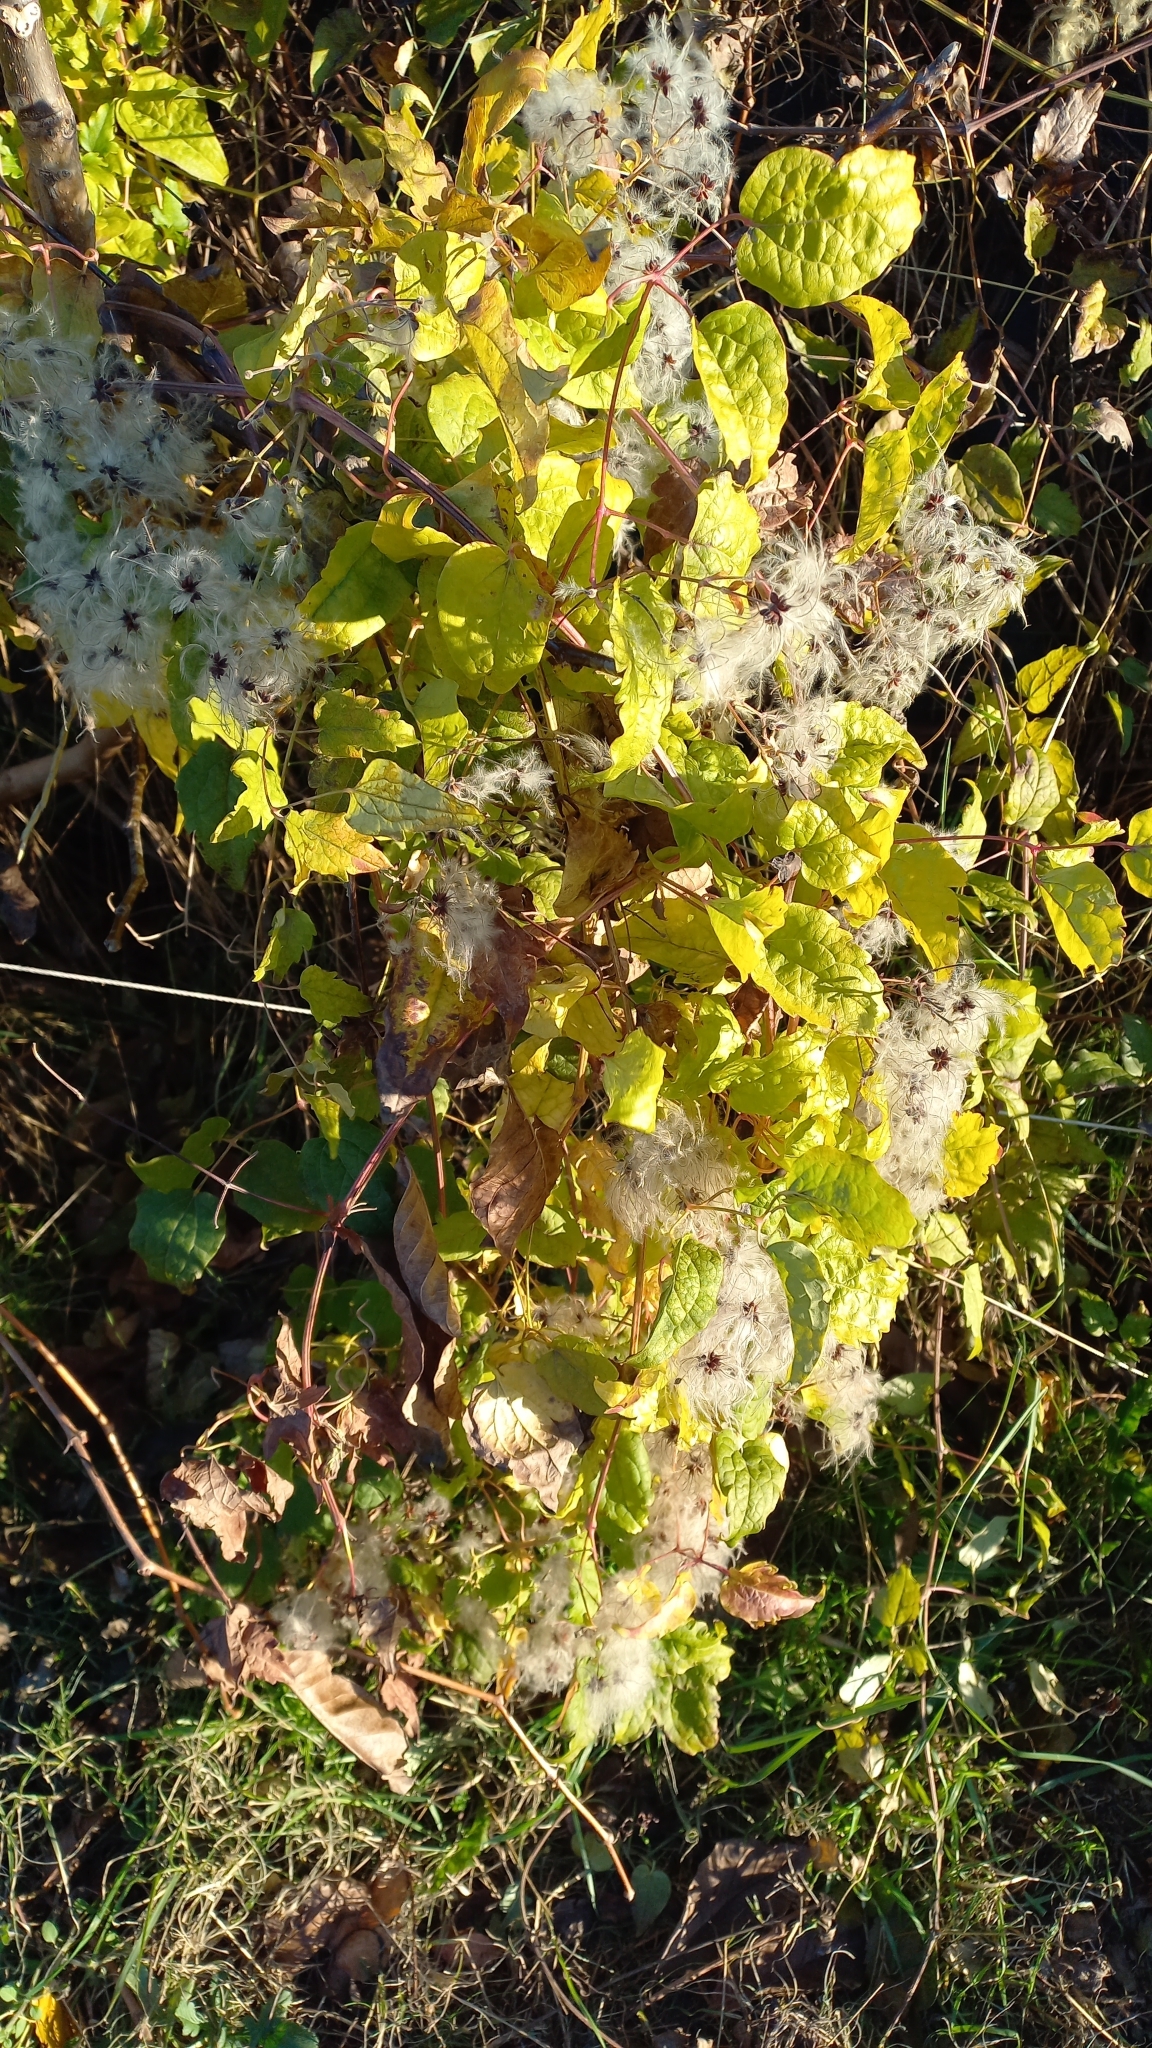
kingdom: Plantae
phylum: Tracheophyta
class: Magnoliopsida
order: Ranunculales
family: Ranunculaceae
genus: Clematis
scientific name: Clematis vitalba
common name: Evergreen clematis
